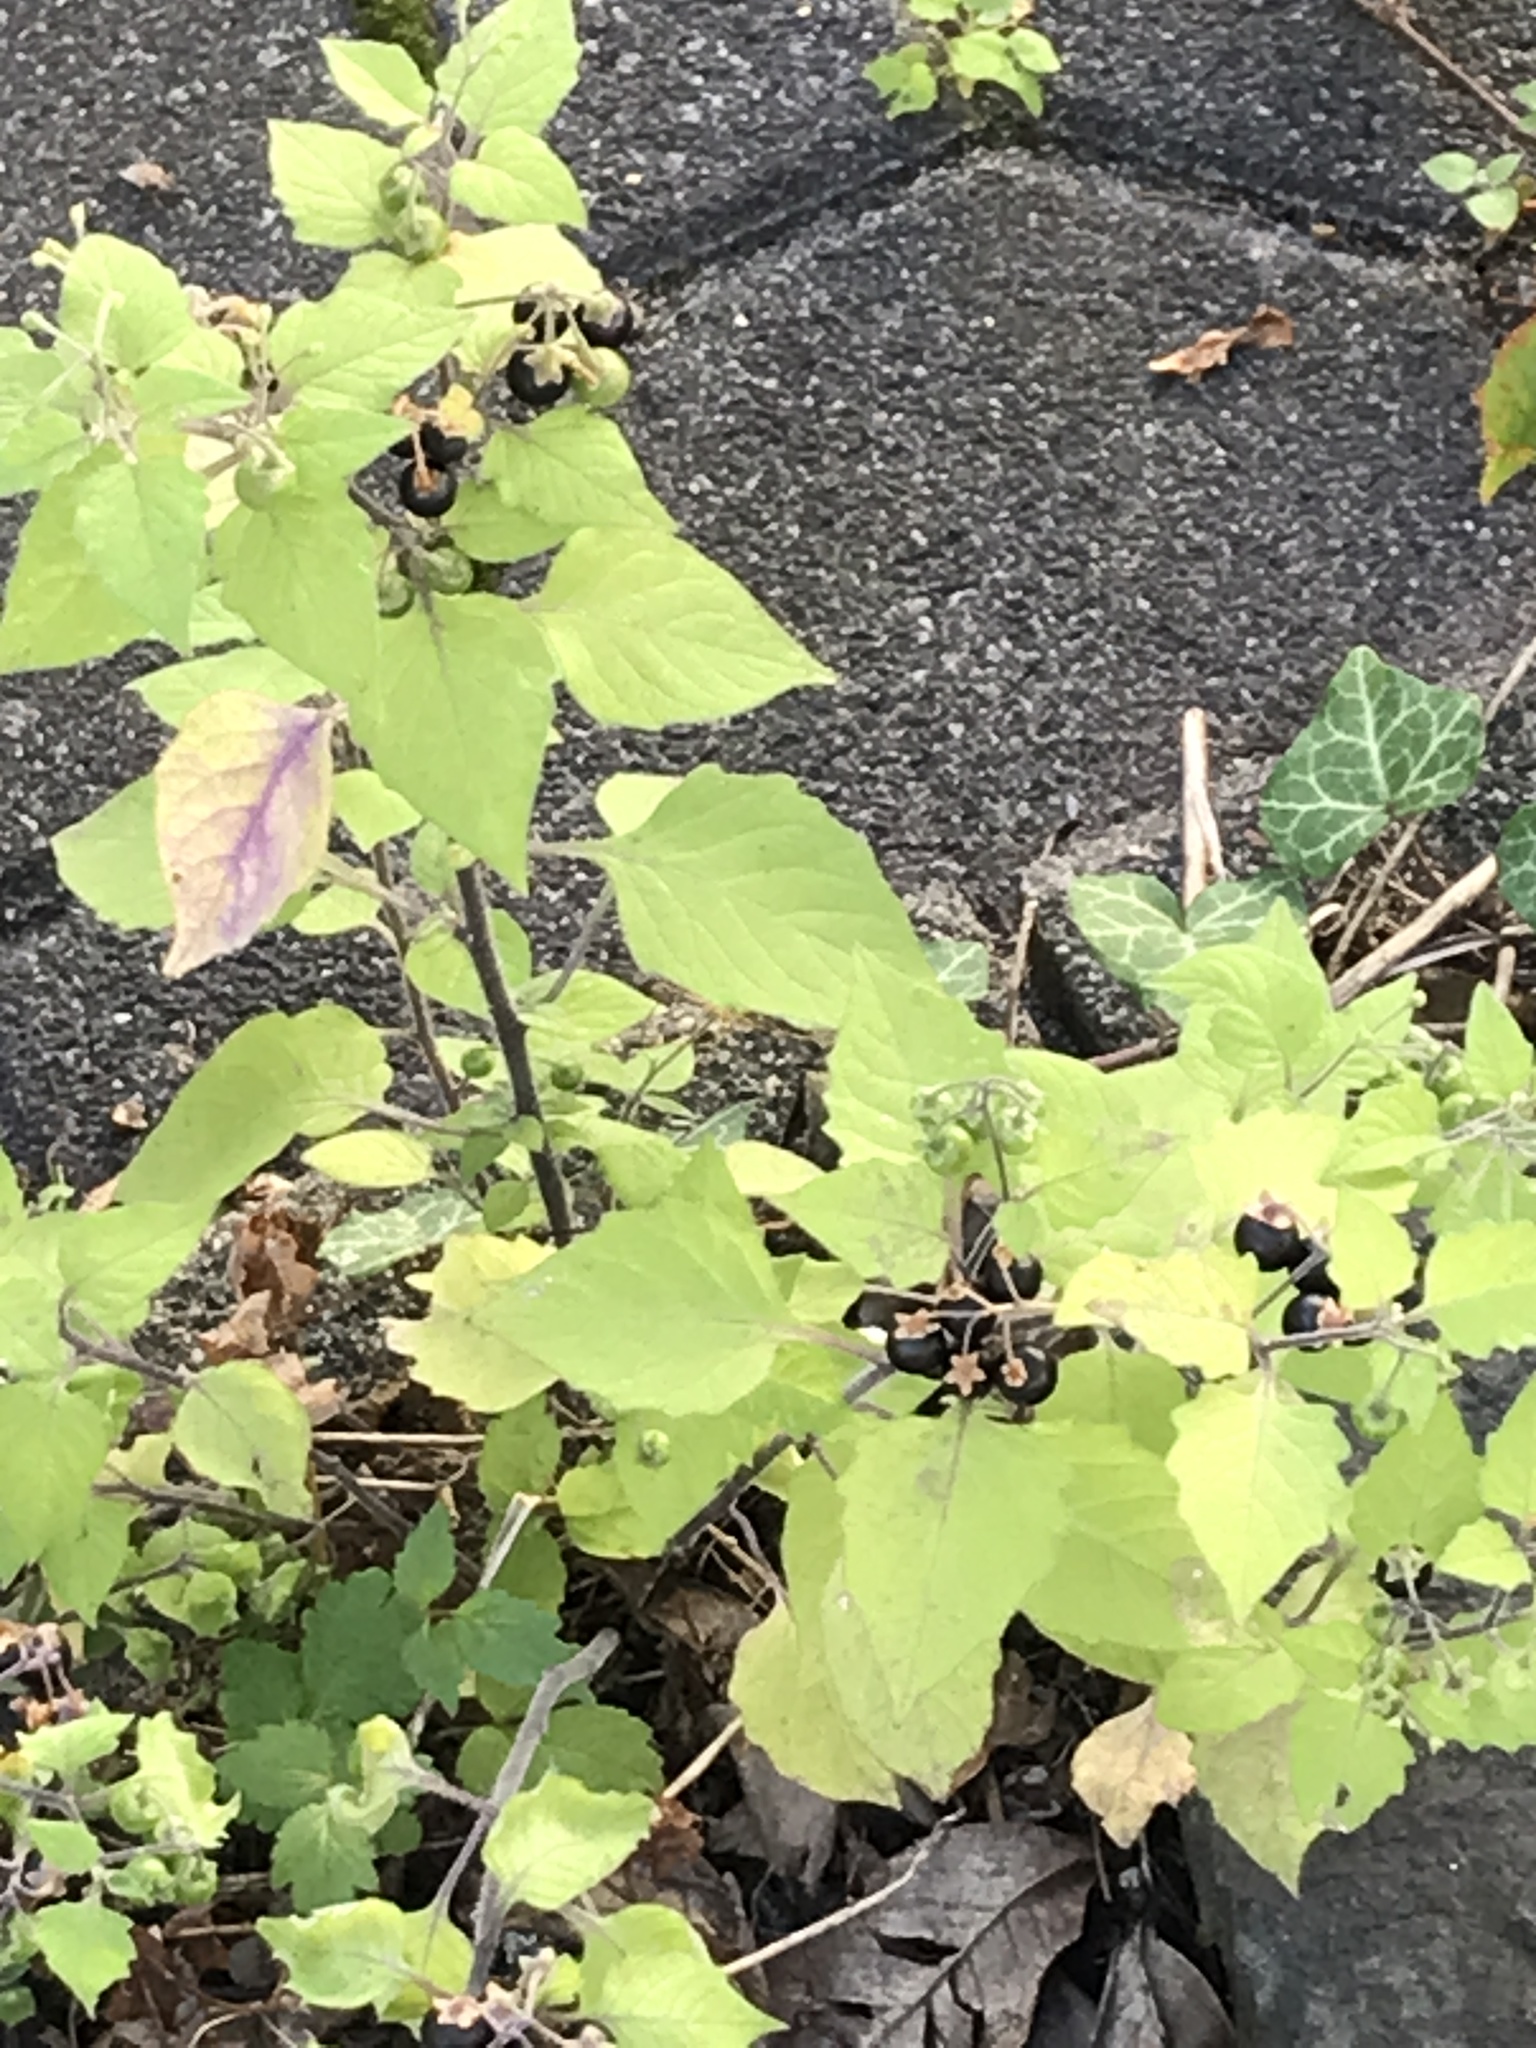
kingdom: Plantae
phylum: Tracheophyta
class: Magnoliopsida
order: Solanales
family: Solanaceae
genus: Solanum
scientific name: Solanum nigrum
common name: Black nightshade
